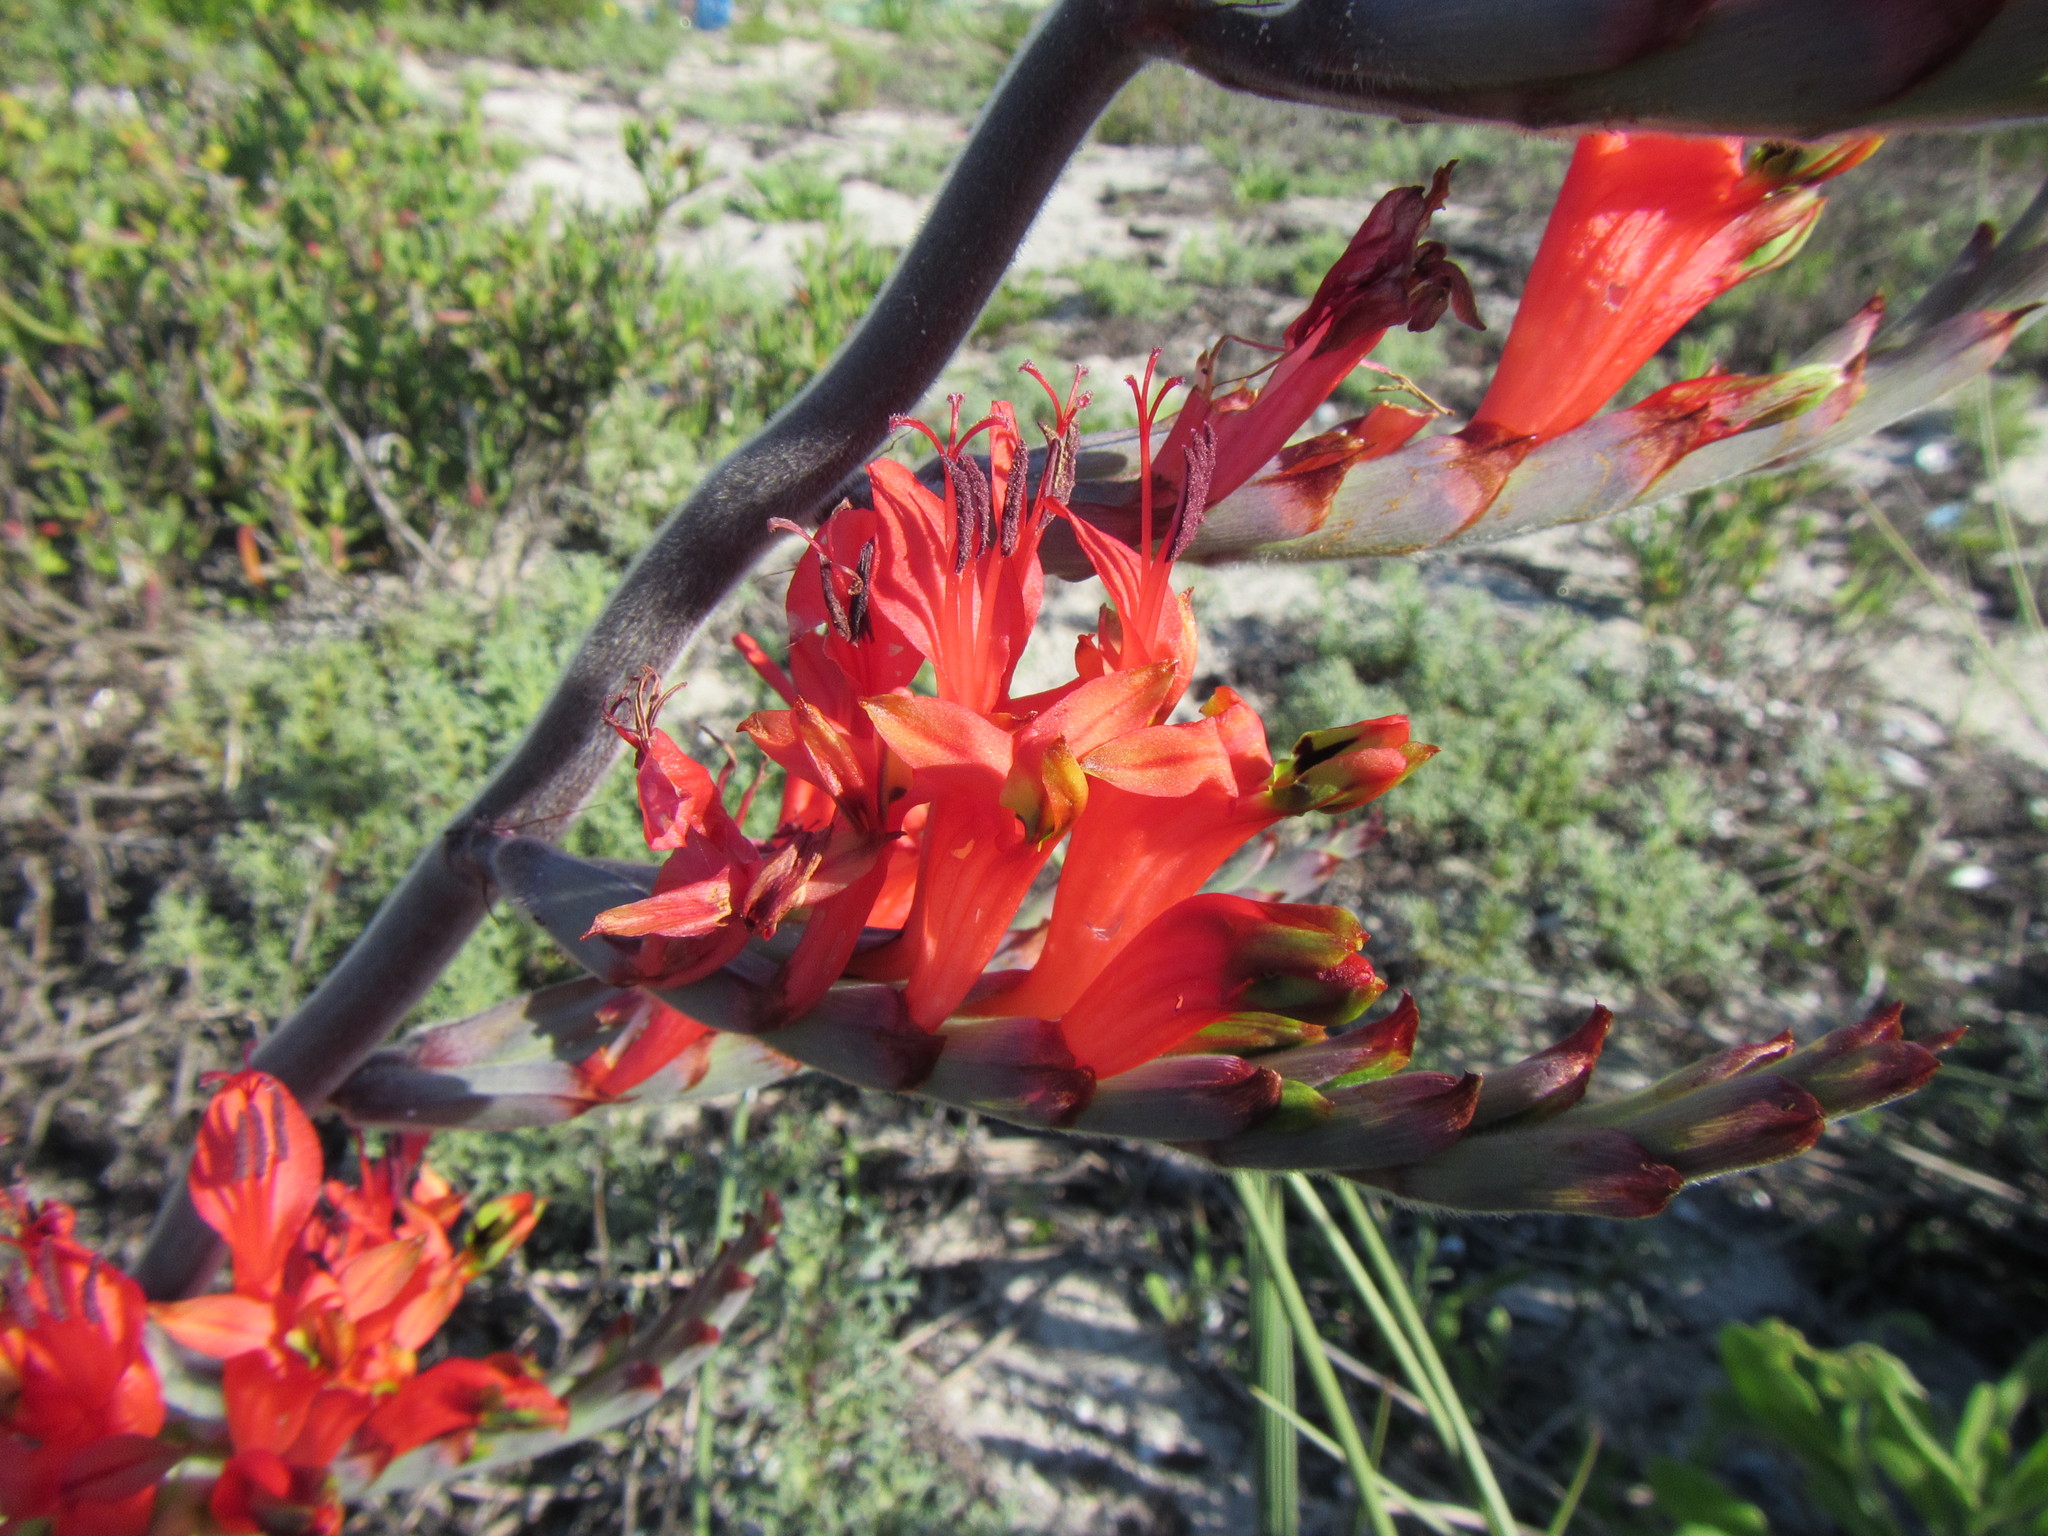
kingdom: Plantae
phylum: Tracheophyta
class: Liliopsida
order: Asparagales
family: Iridaceae
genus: Babiana
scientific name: Babiana hirsuta
